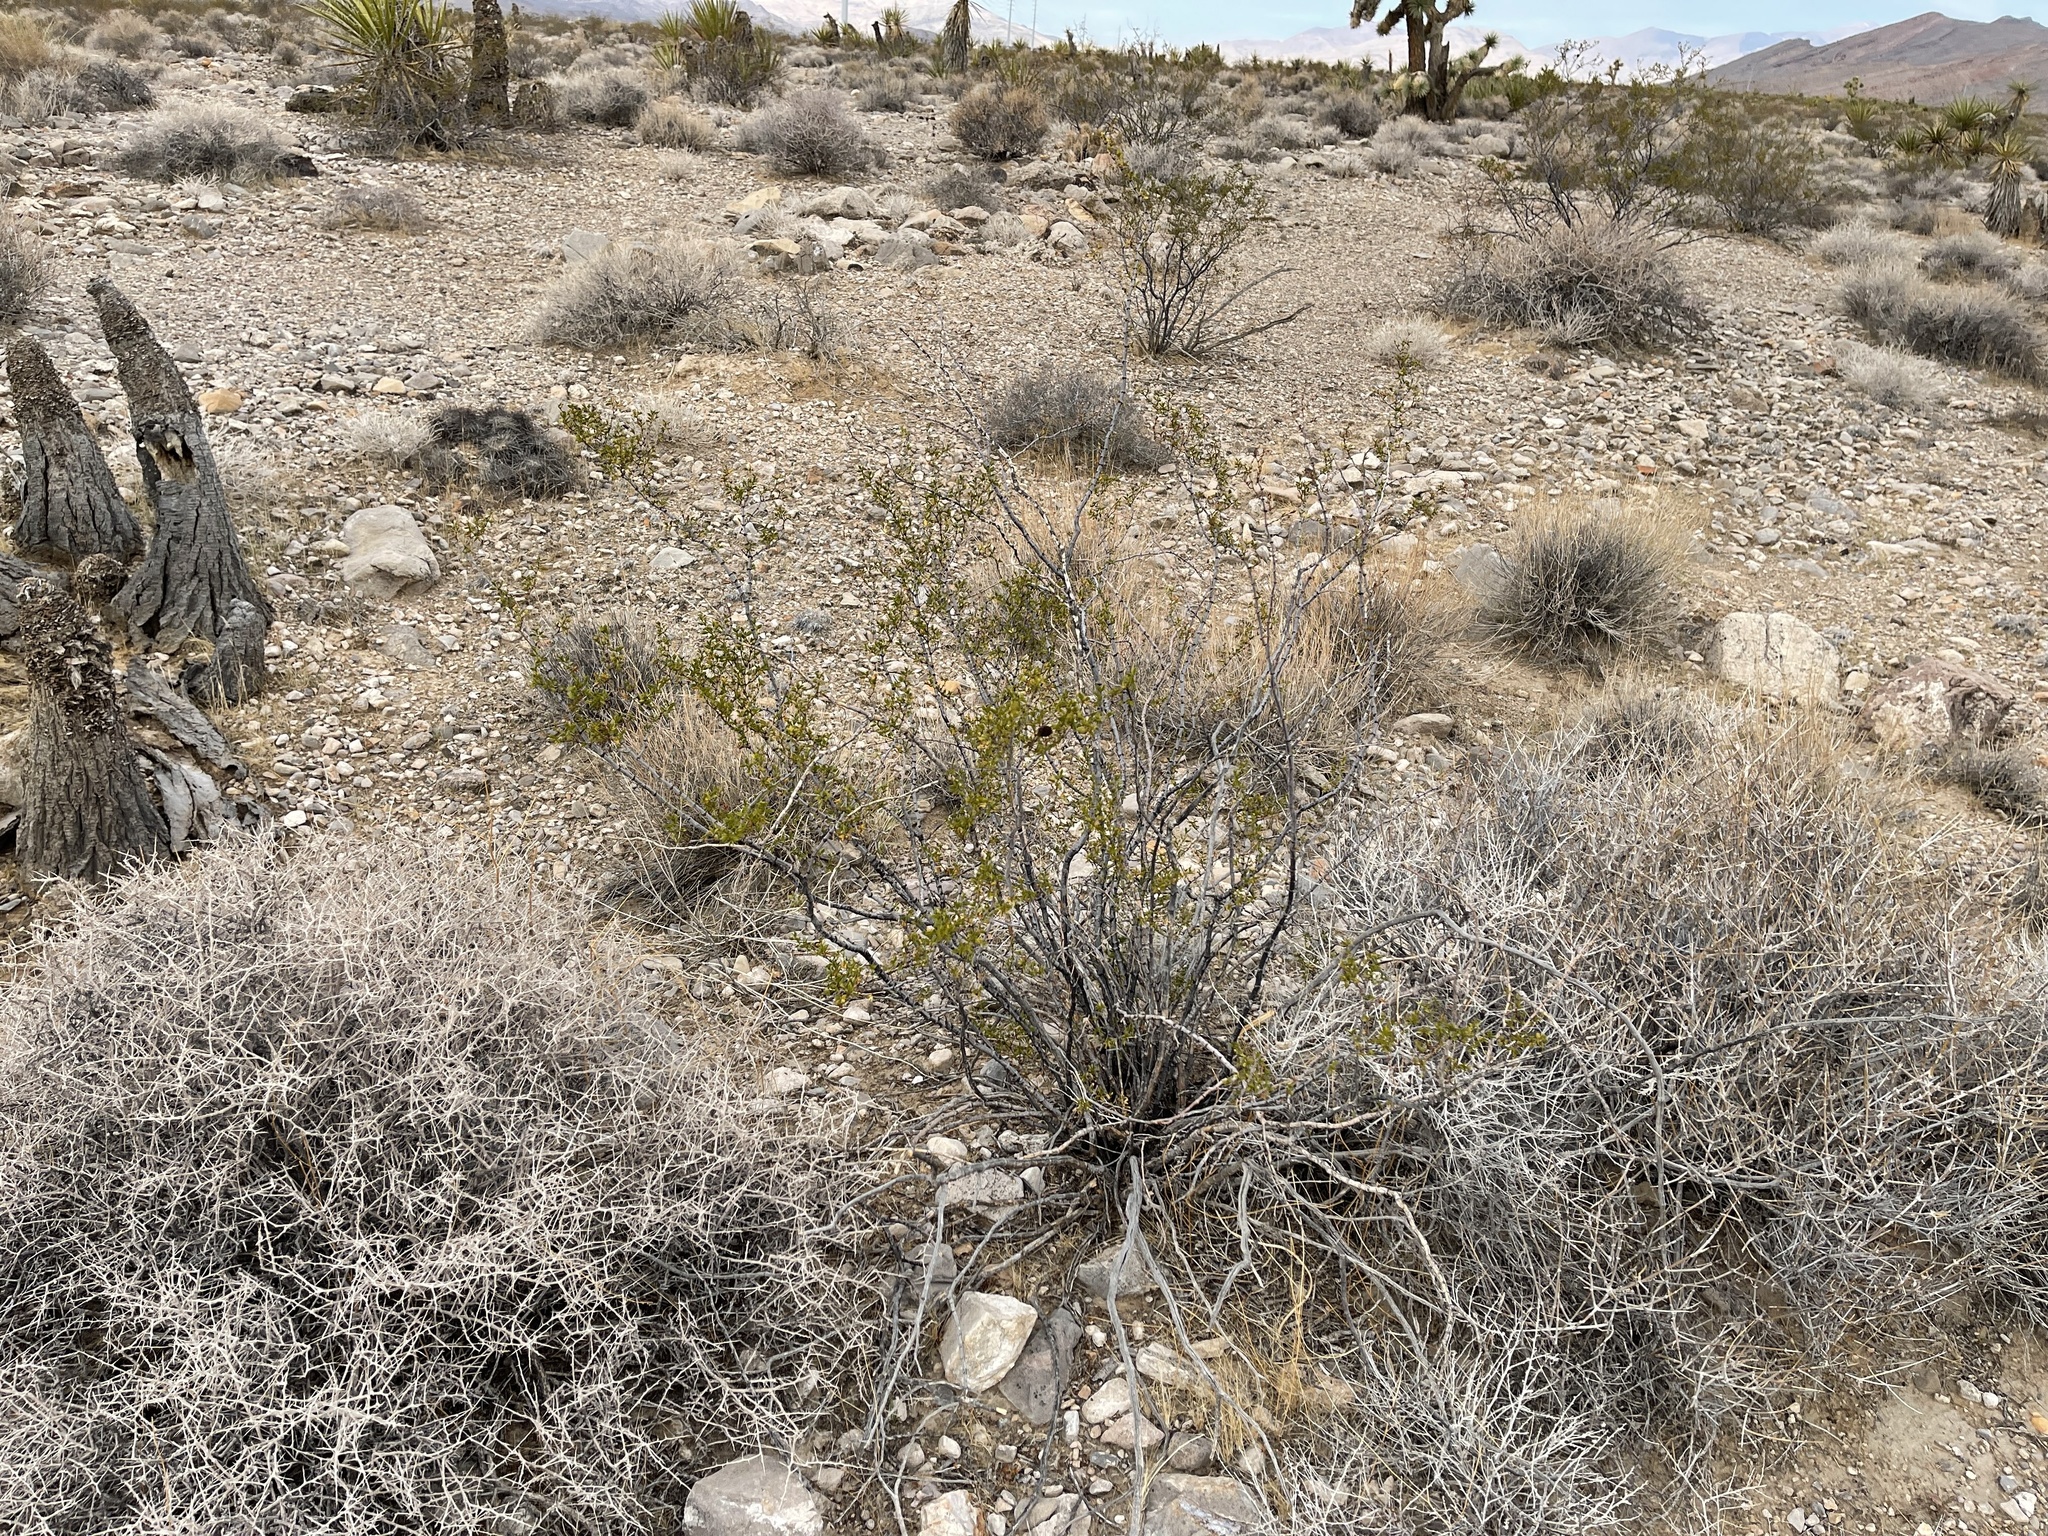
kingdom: Plantae
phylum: Tracheophyta
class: Magnoliopsida
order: Zygophyllales
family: Zygophyllaceae
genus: Larrea
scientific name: Larrea tridentata
